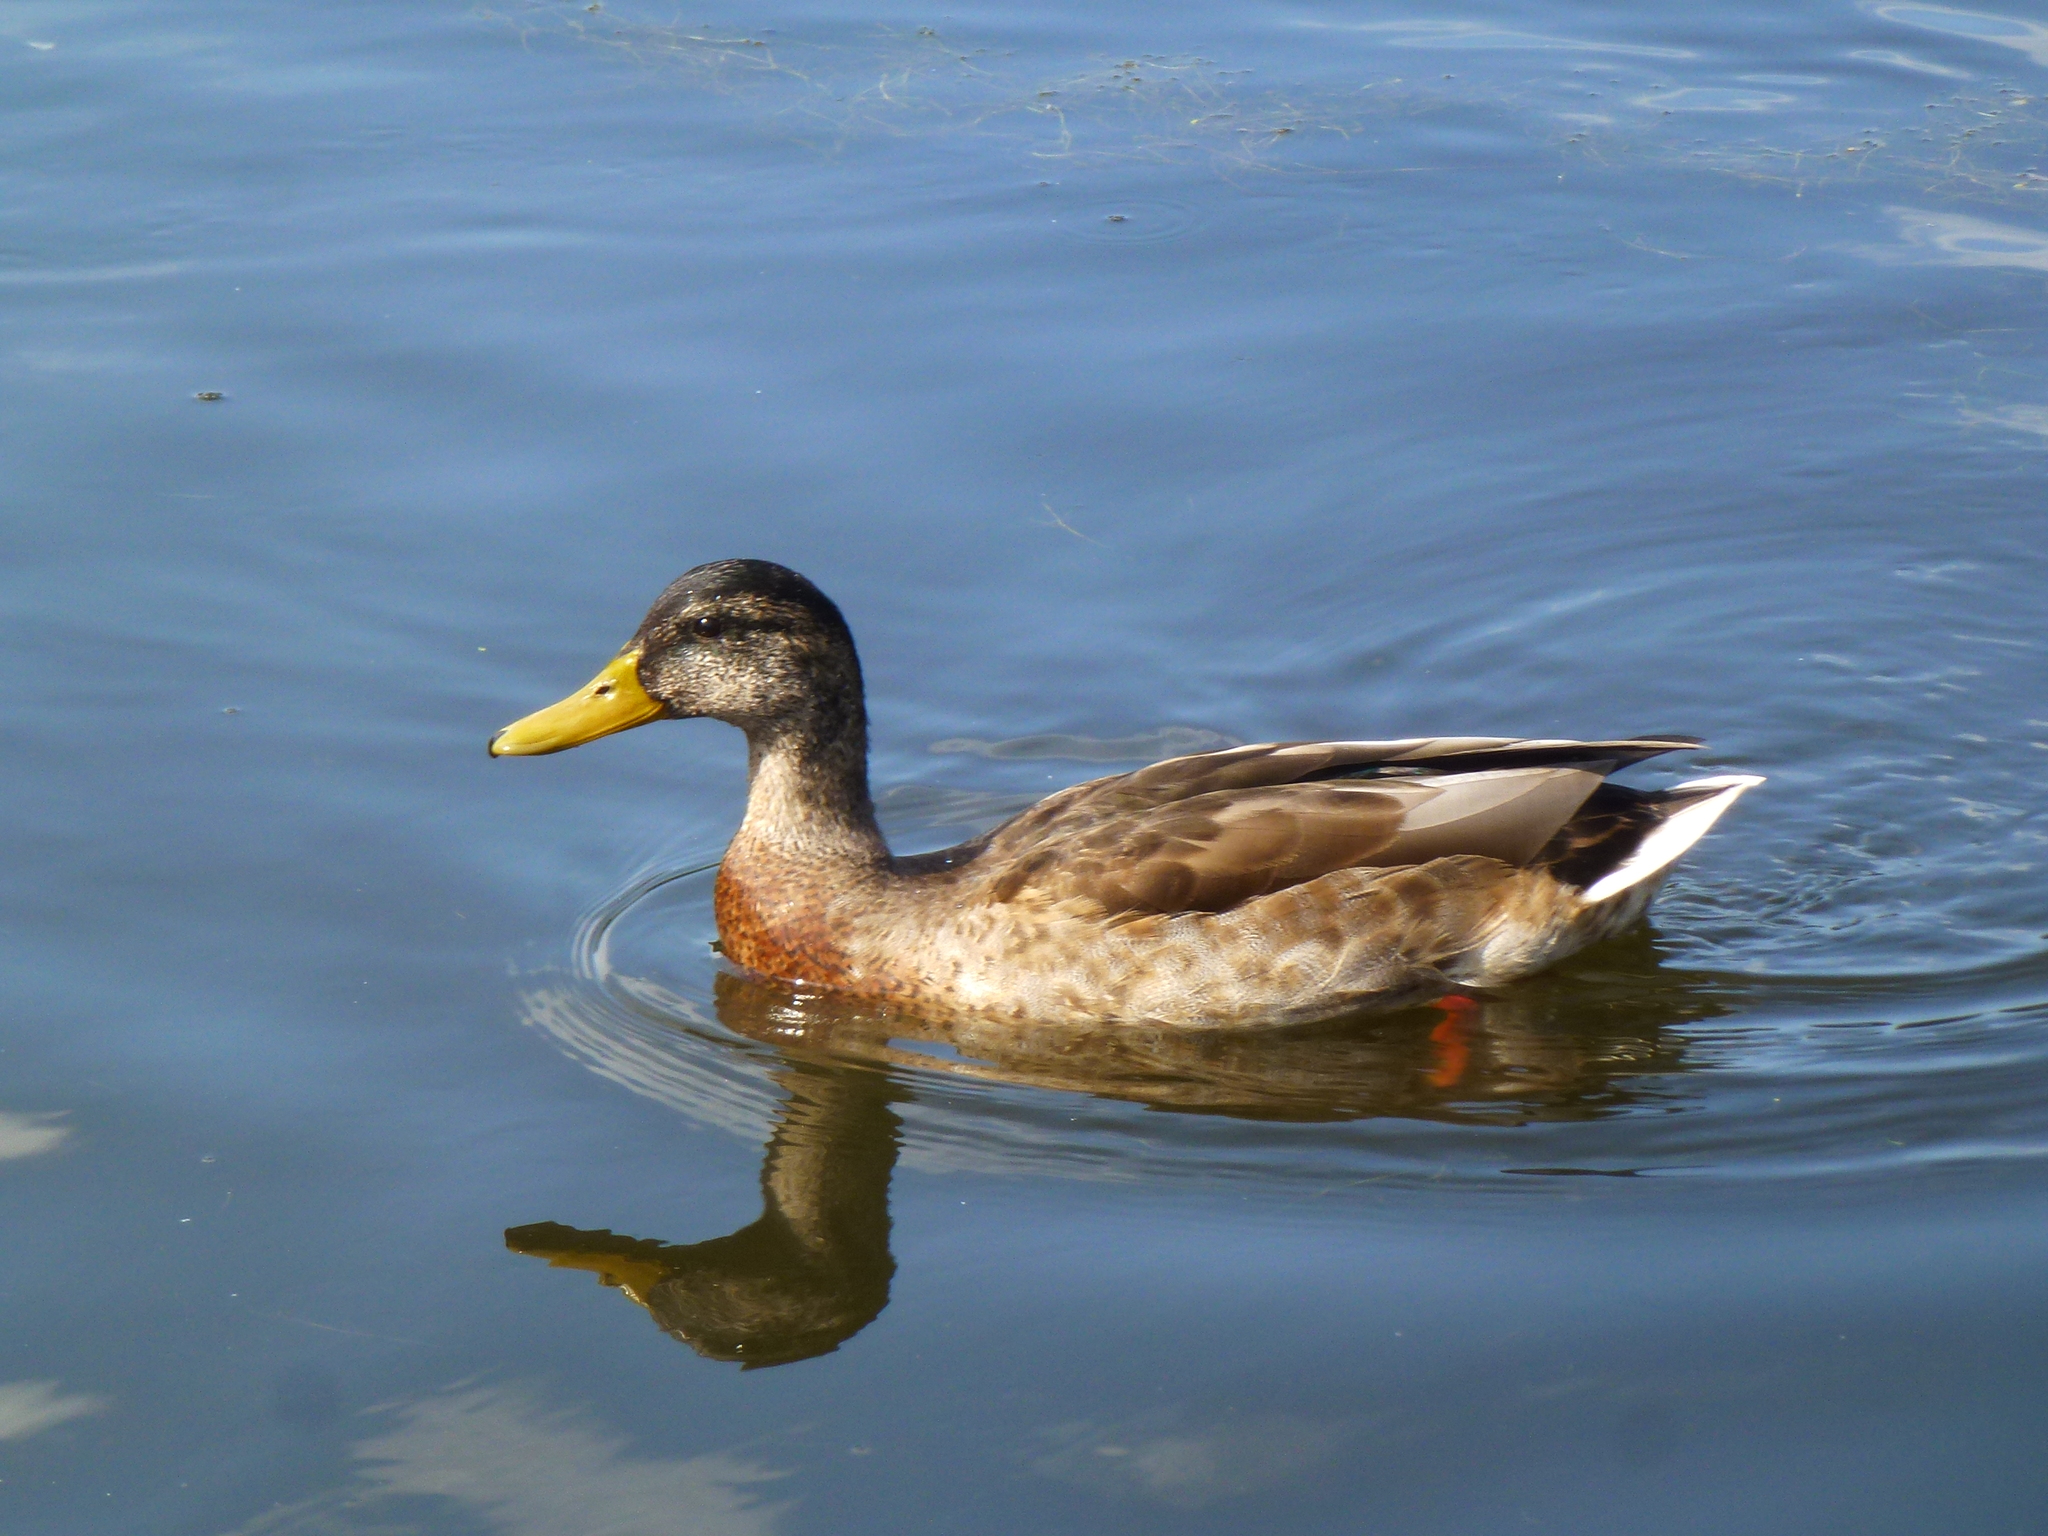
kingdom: Animalia
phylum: Chordata
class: Aves
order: Anseriformes
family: Anatidae
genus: Anas
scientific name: Anas platyrhynchos
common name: Mallard
